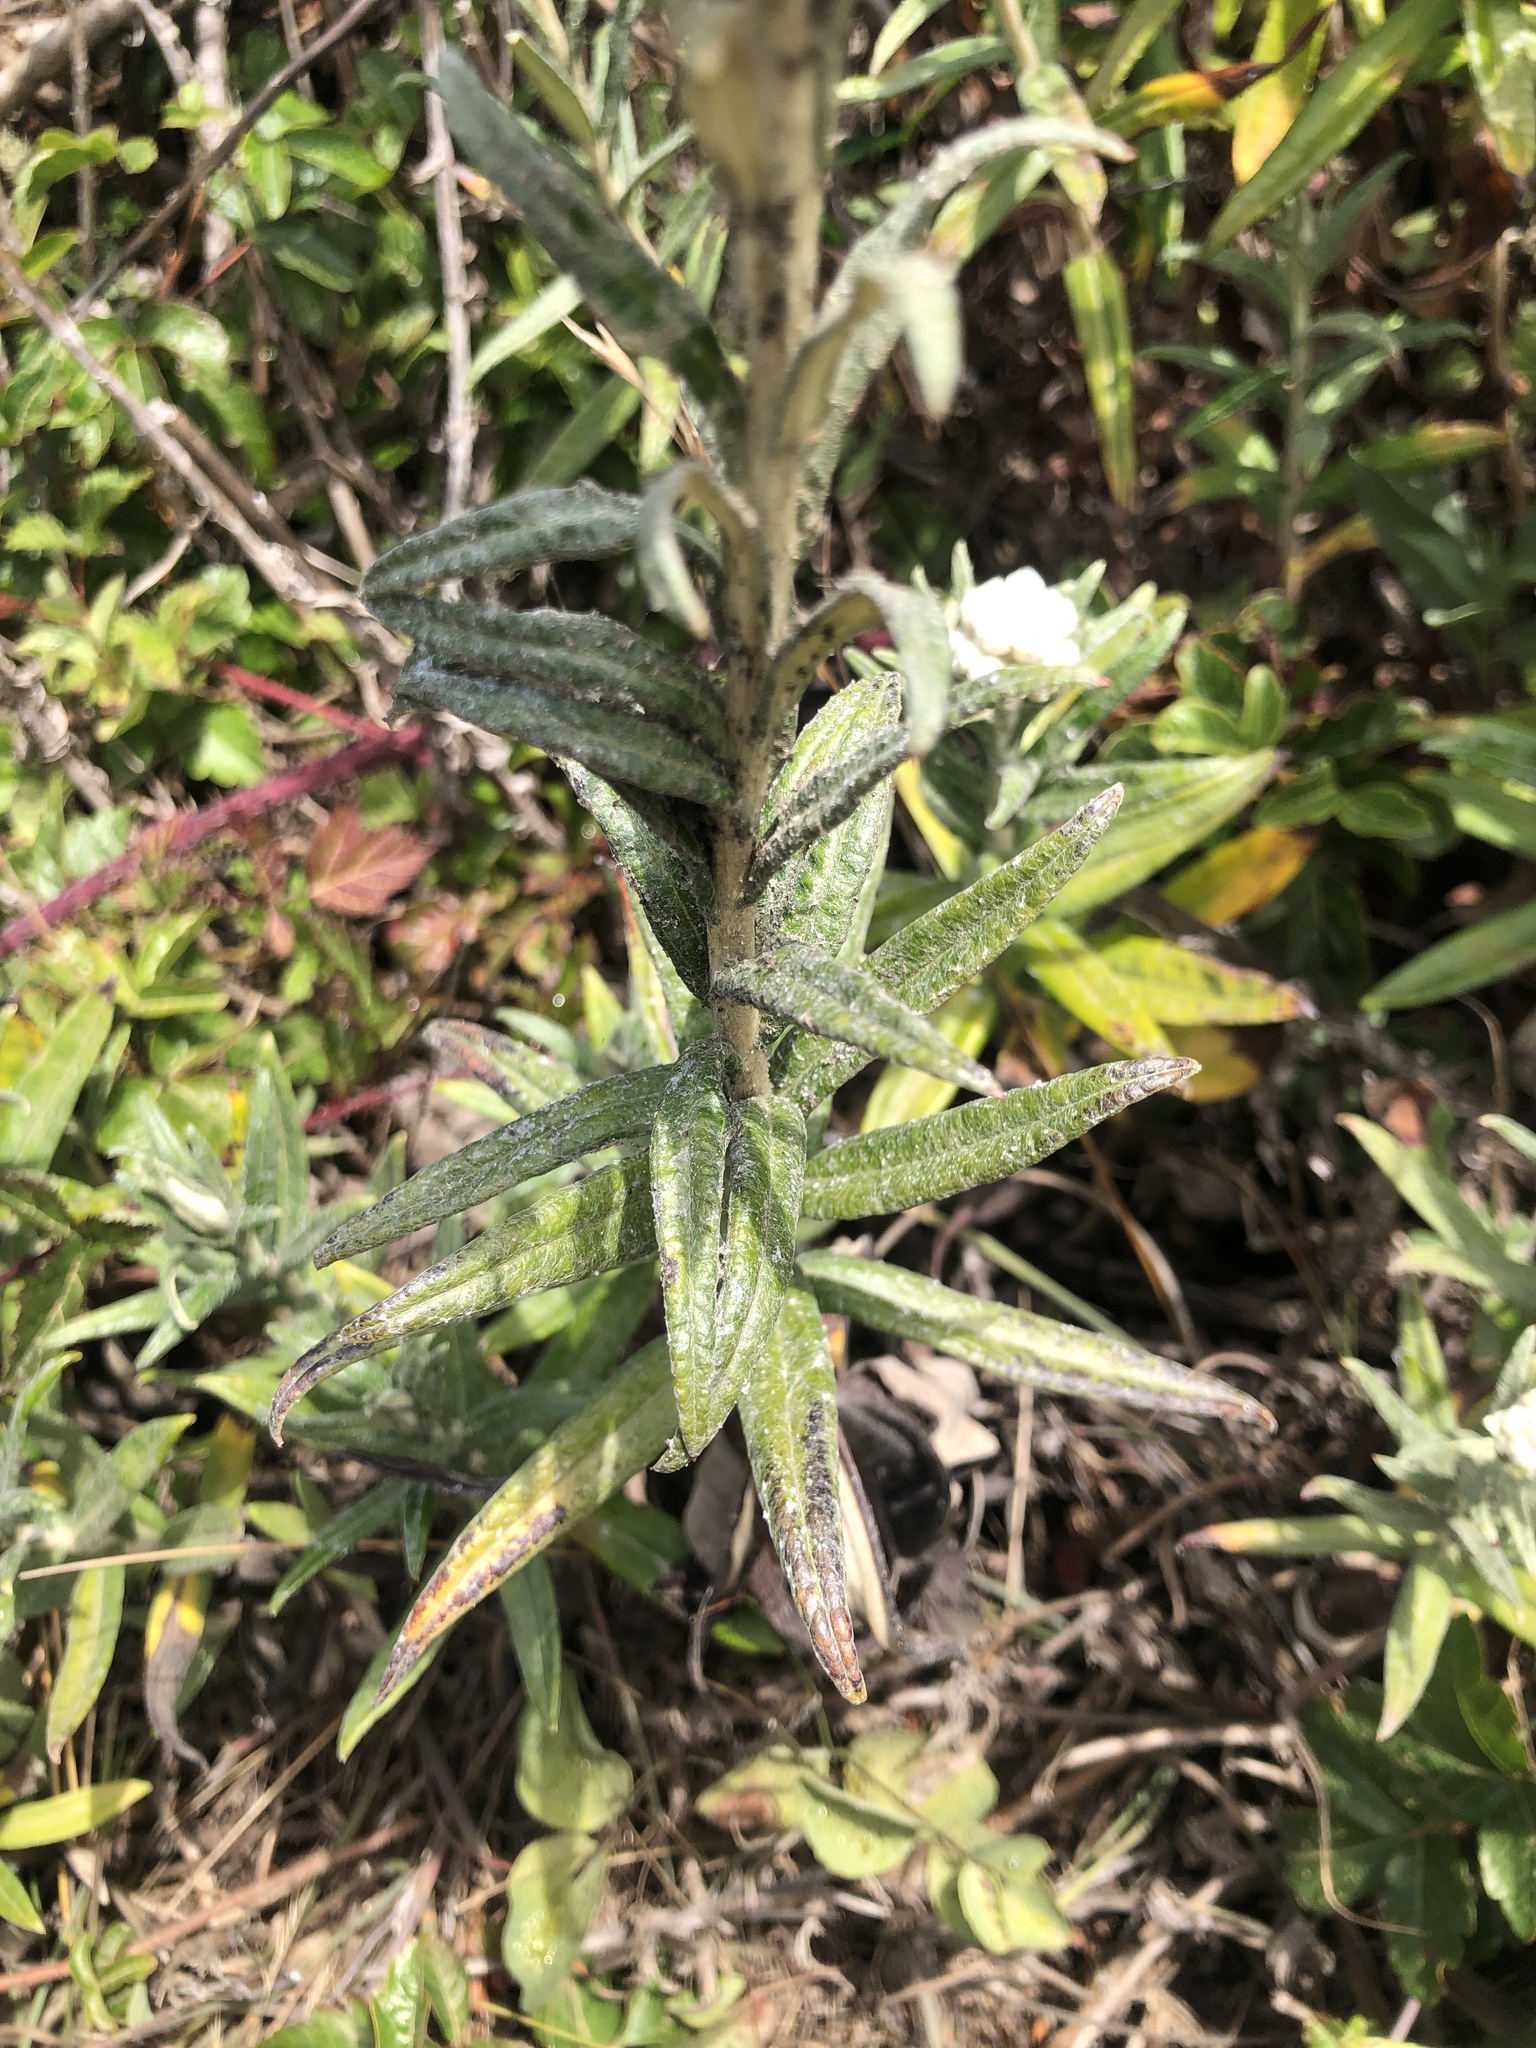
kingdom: Plantae
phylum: Tracheophyta
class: Magnoliopsida
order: Asterales
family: Asteraceae
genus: Anaphalis
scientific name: Anaphalis margaritacea
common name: Pearly everlasting
